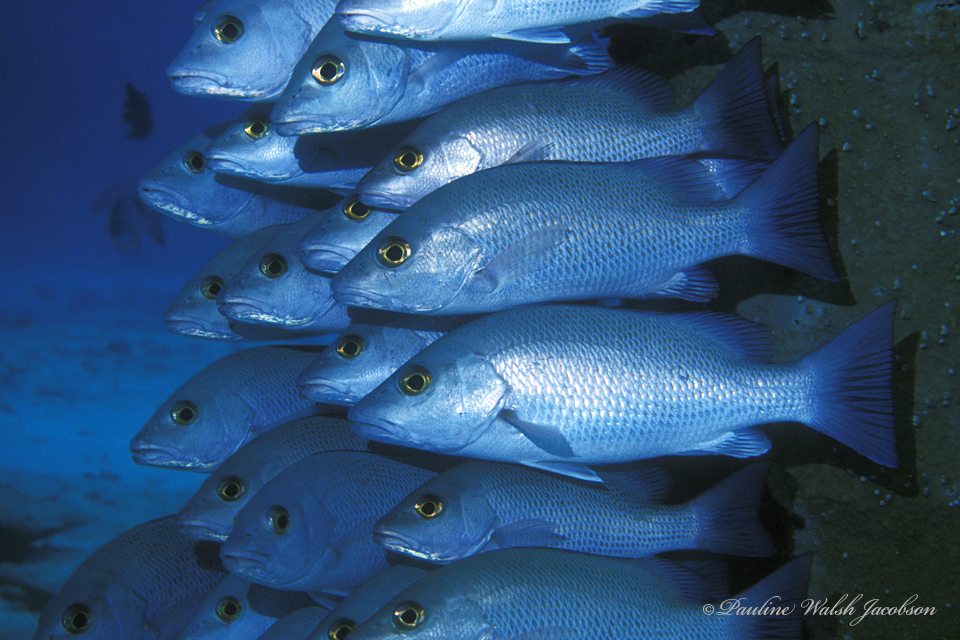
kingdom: Animalia
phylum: Chordata
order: Perciformes
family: Lutjanidae
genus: Lutjanus
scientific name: Lutjanus griseus
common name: Gray snapper
